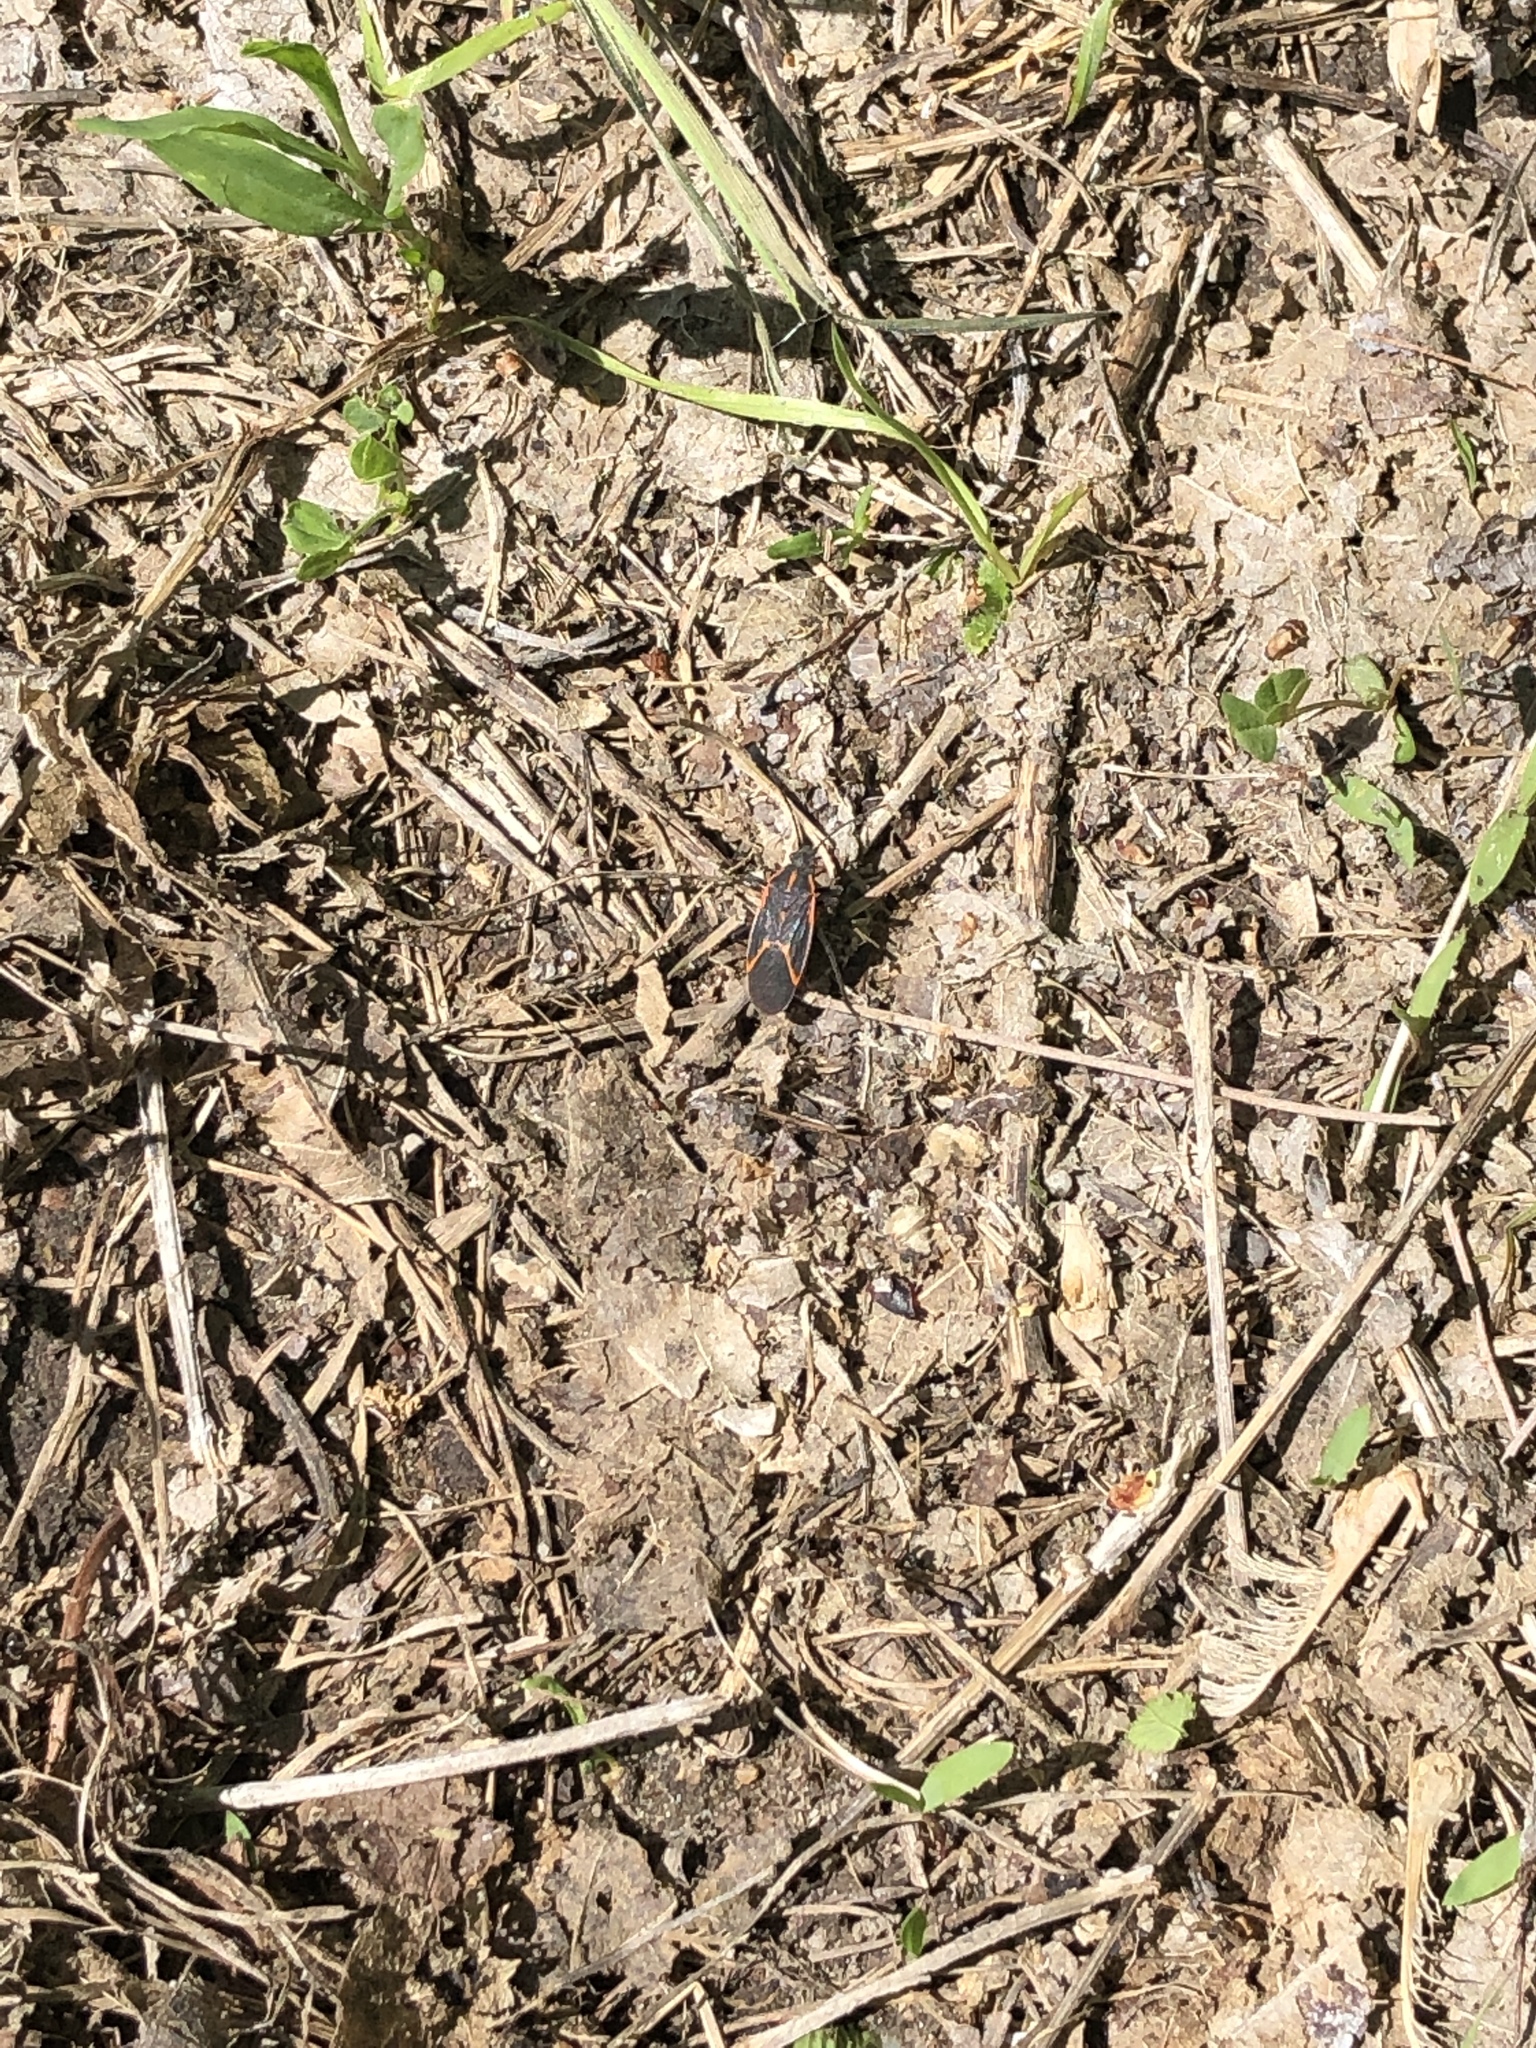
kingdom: Animalia
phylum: Arthropoda
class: Insecta
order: Hemiptera
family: Rhopalidae
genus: Boisea
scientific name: Boisea trivittata
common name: Boxelder bug
